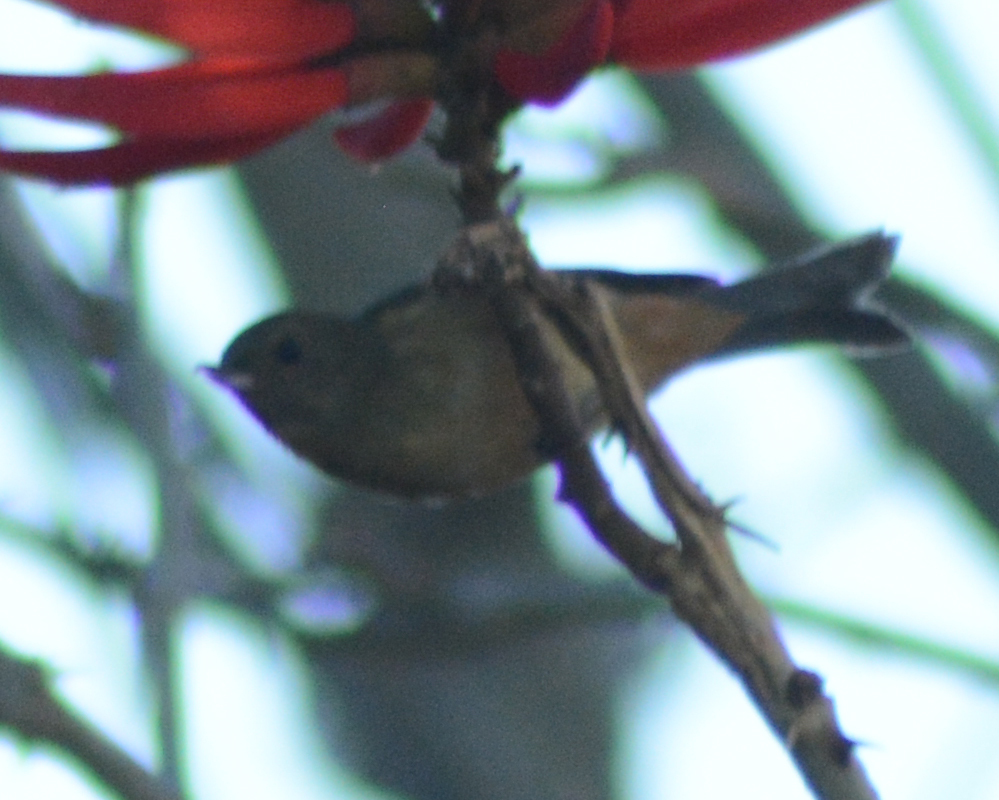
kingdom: Animalia
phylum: Chordata
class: Aves
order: Passeriformes
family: Thraupidae
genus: Diglossa
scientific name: Diglossa baritula
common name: Cinnamon-bellied flowerpiercer
